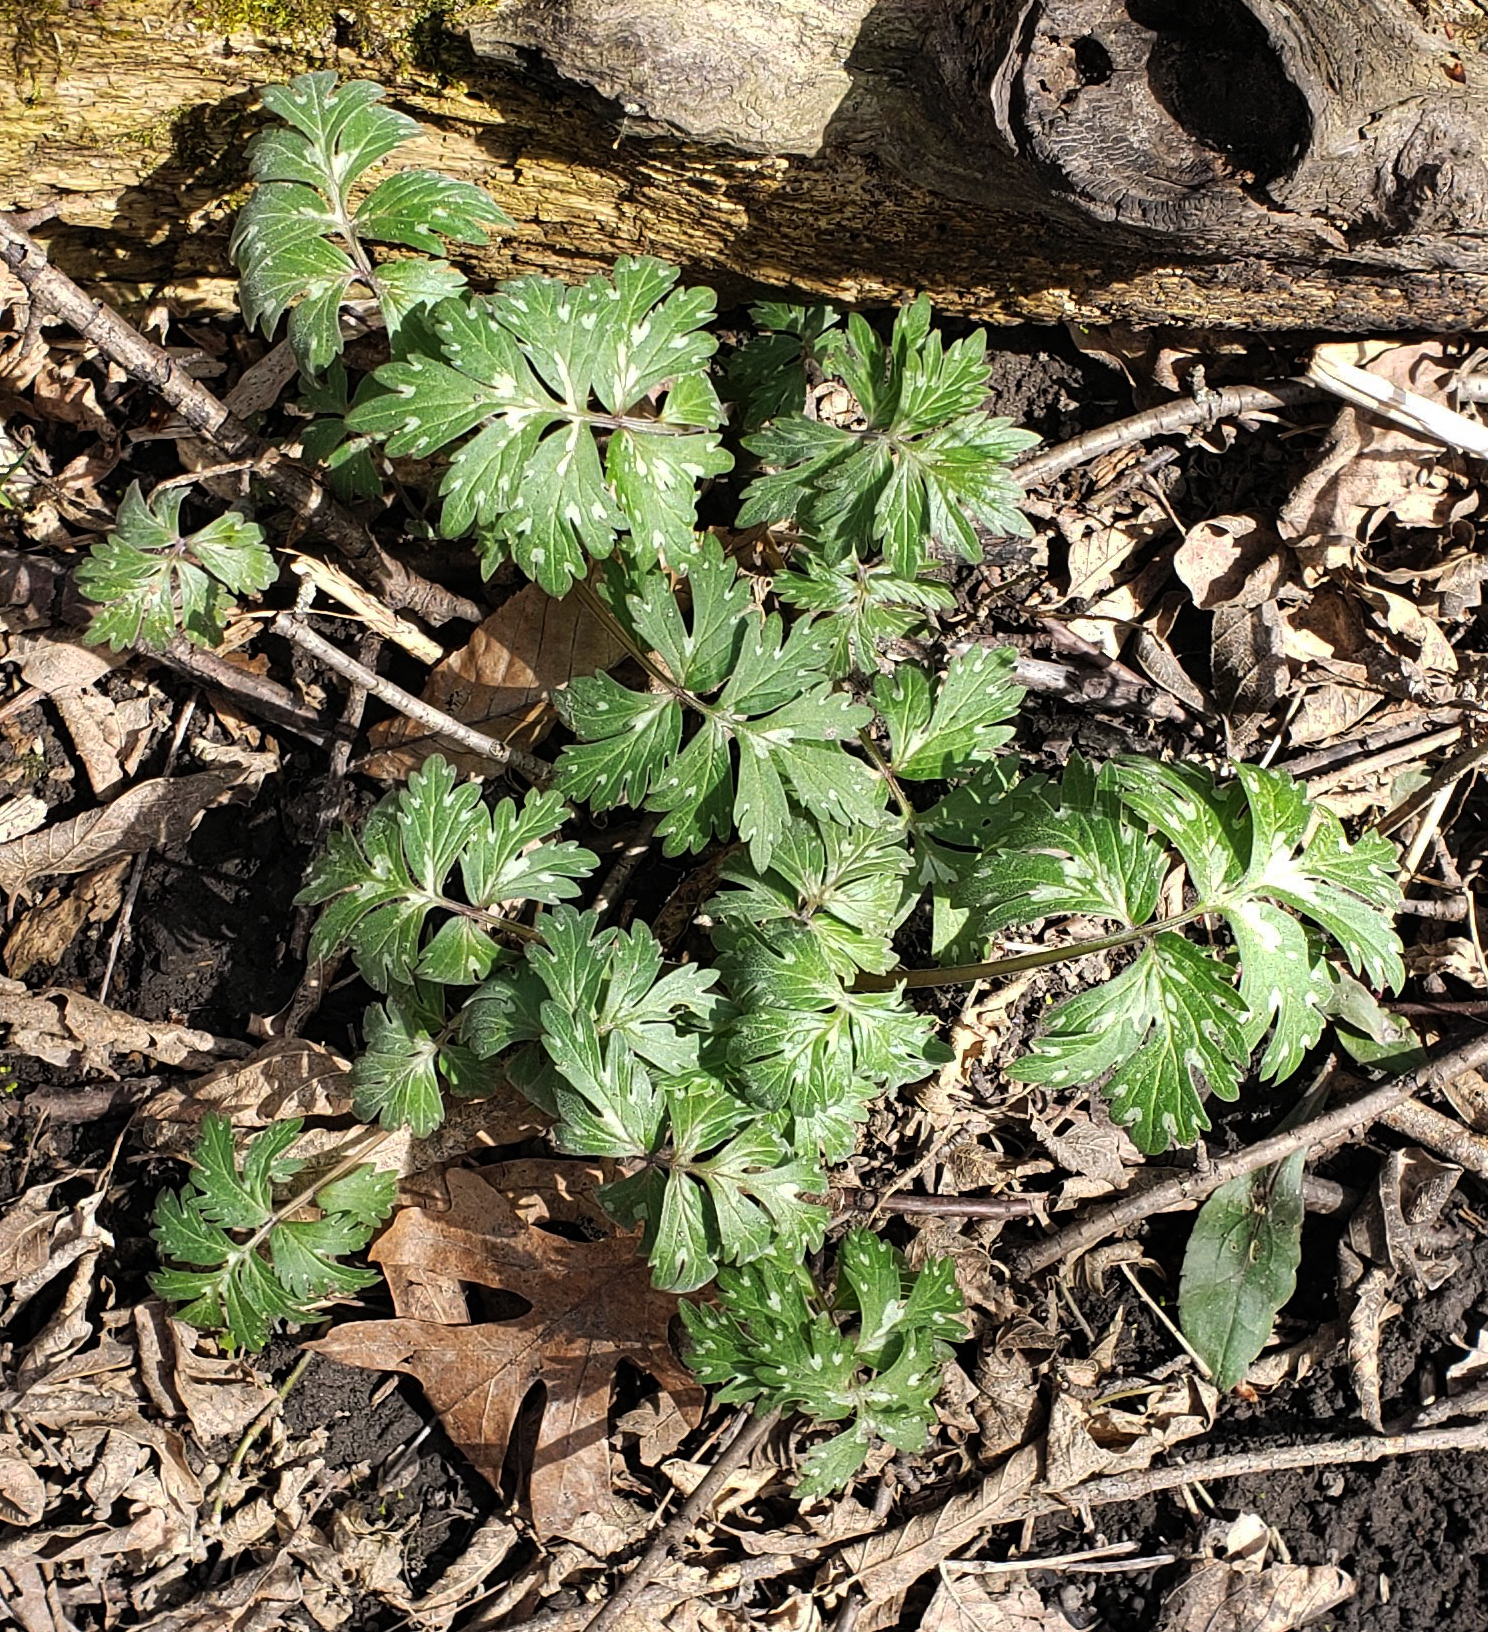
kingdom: Plantae
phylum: Tracheophyta
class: Magnoliopsida
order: Boraginales
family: Hydrophyllaceae
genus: Hydrophyllum
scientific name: Hydrophyllum virginianum
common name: Virginia waterleaf
